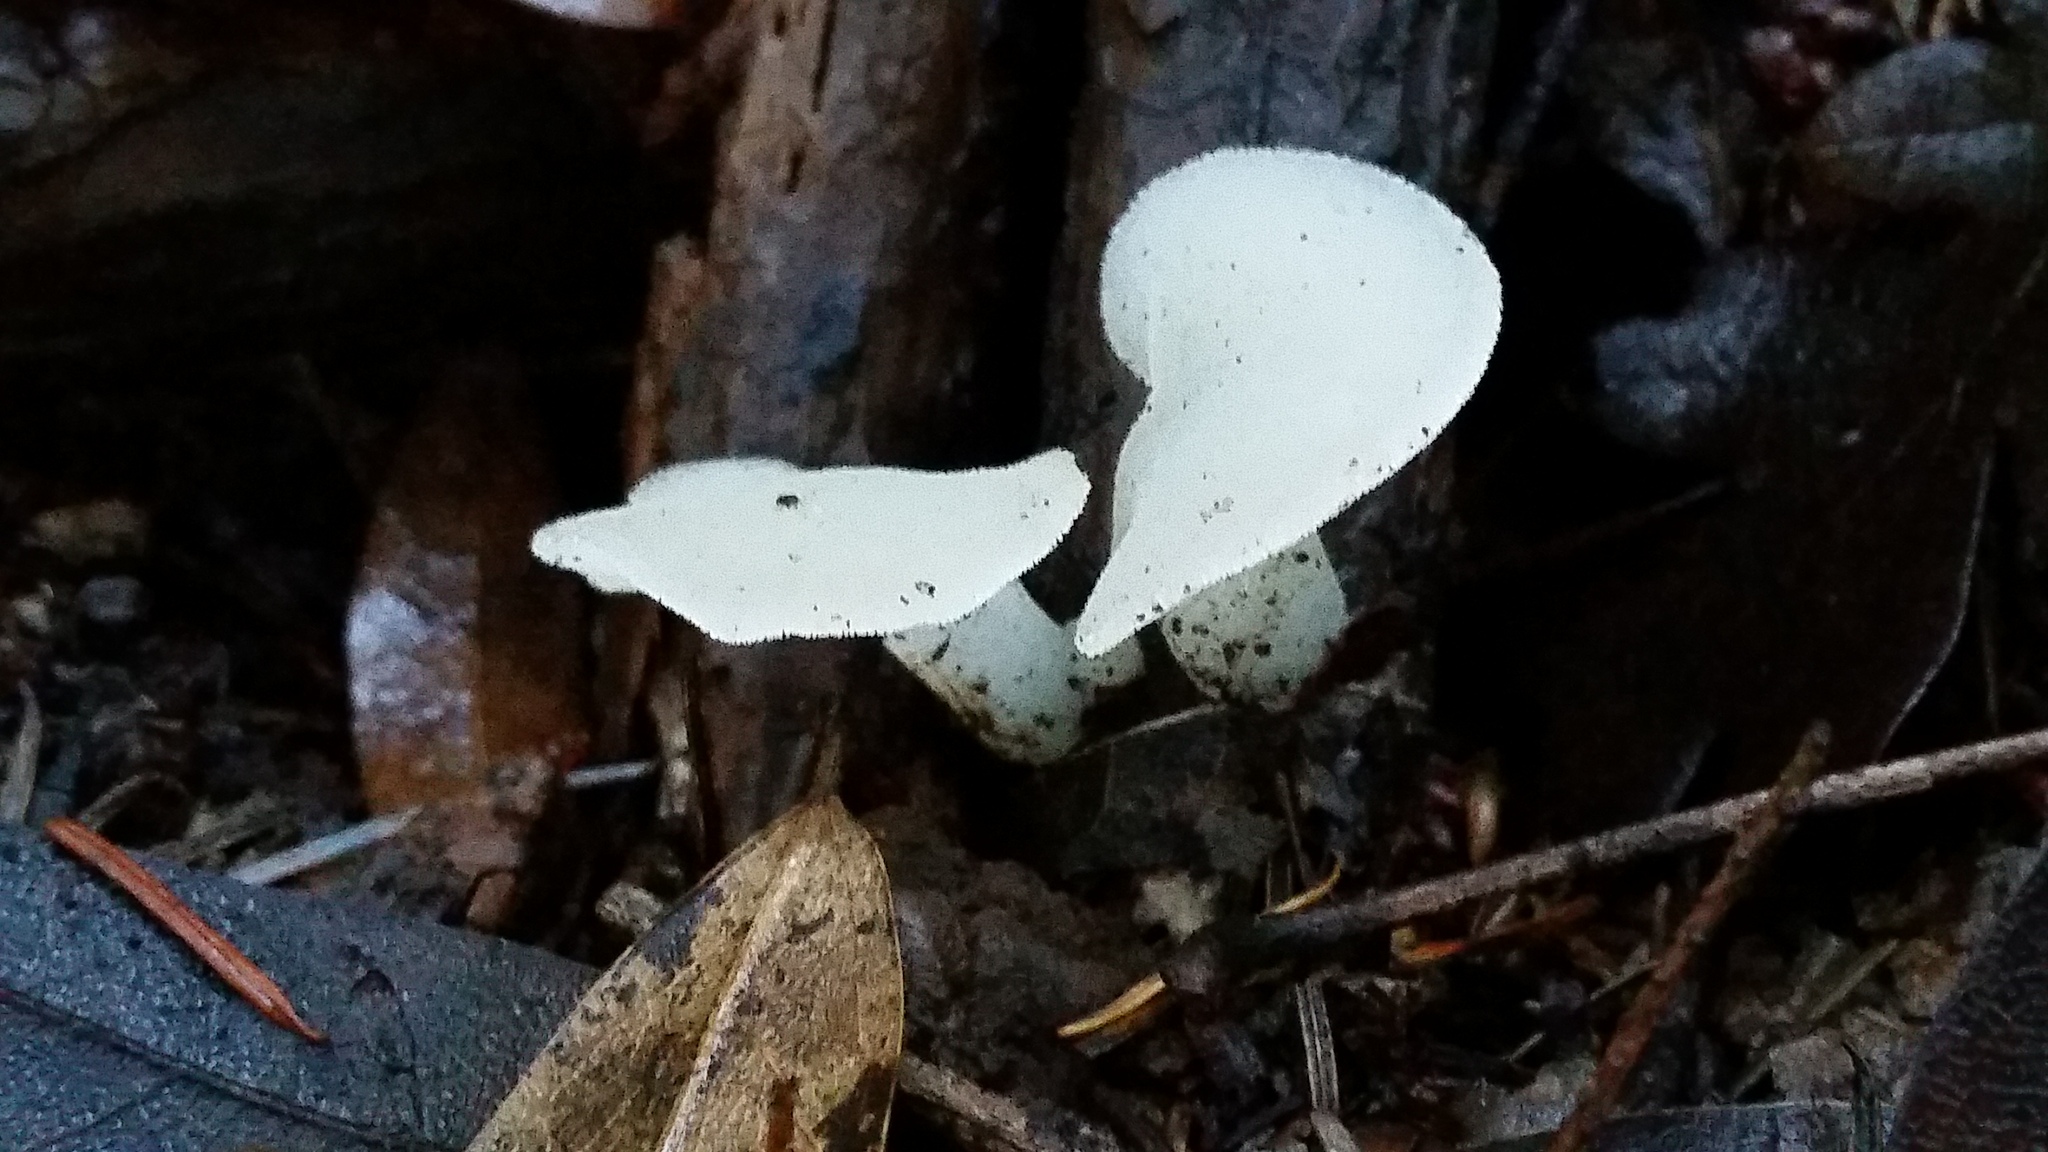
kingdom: Fungi
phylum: Basidiomycota
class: Agaricomycetes
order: Auriculariales
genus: Pseudohydnum
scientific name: Pseudohydnum gelatinosum
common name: Jelly tongue
